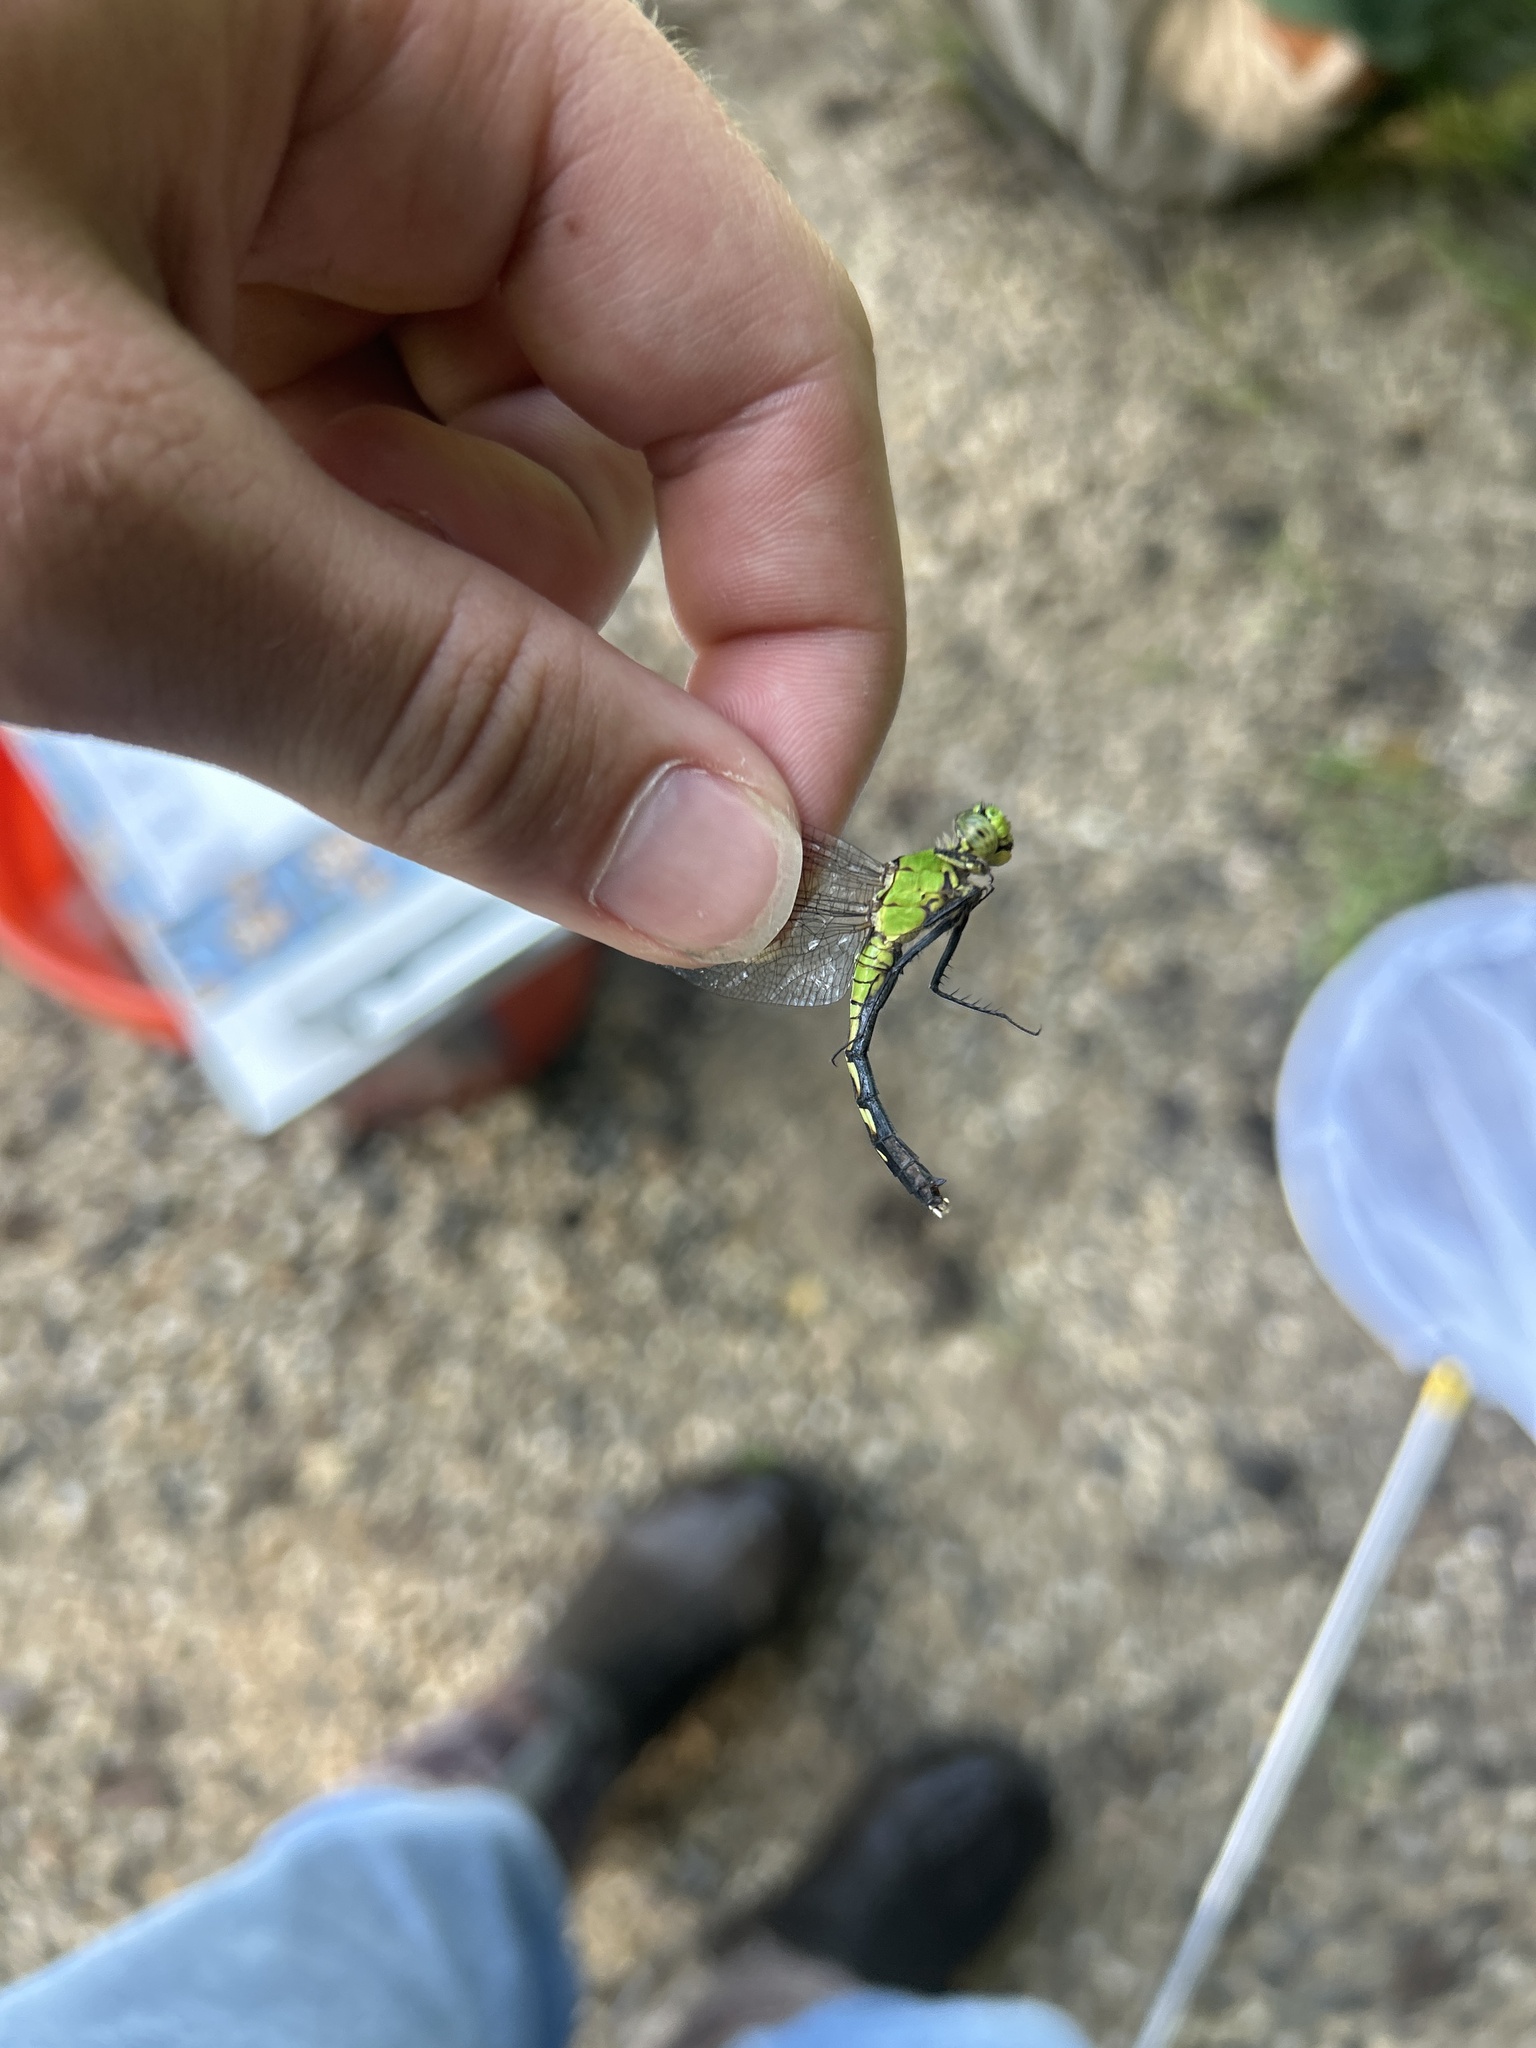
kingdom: Animalia
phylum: Arthropoda
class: Insecta
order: Odonata
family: Libellulidae
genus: Erythemis
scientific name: Erythemis simplicicollis
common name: Eastern pondhawk
